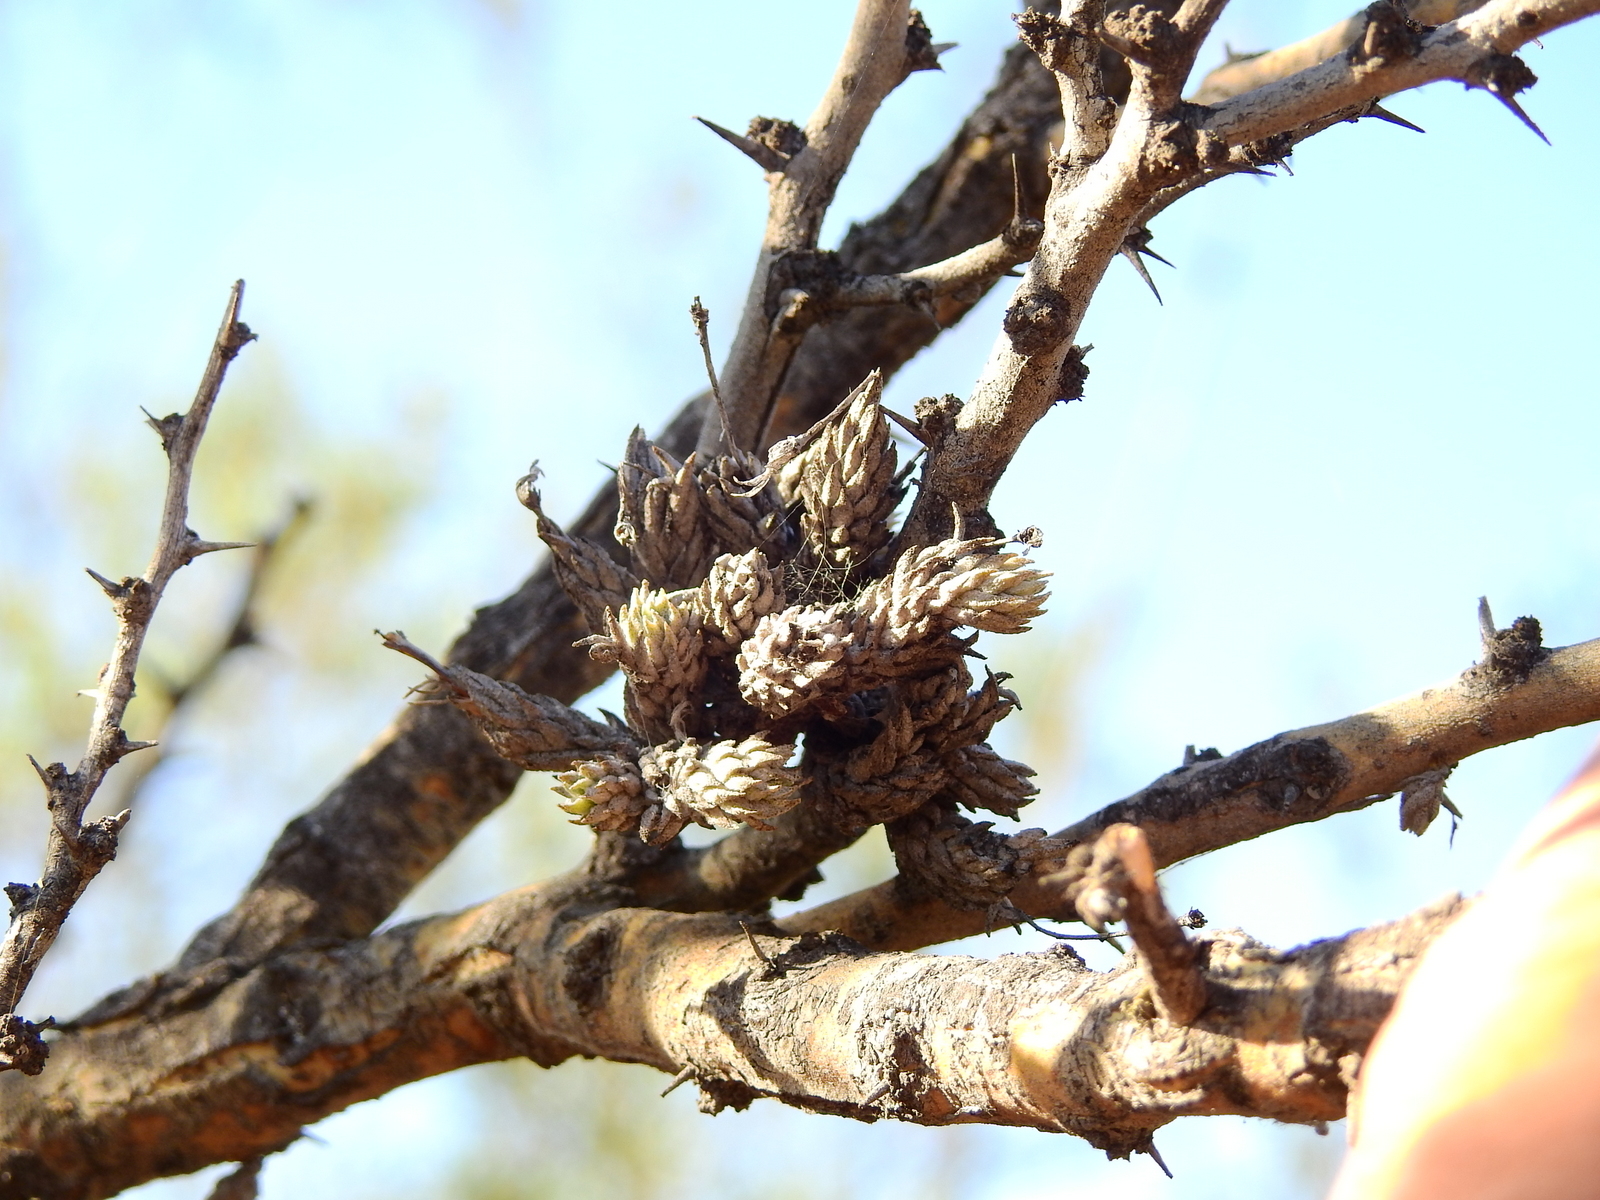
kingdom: Plantae
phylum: Tracheophyta
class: Liliopsida
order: Poales
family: Bromeliaceae
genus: Tillandsia
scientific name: Tillandsia pedicellata
